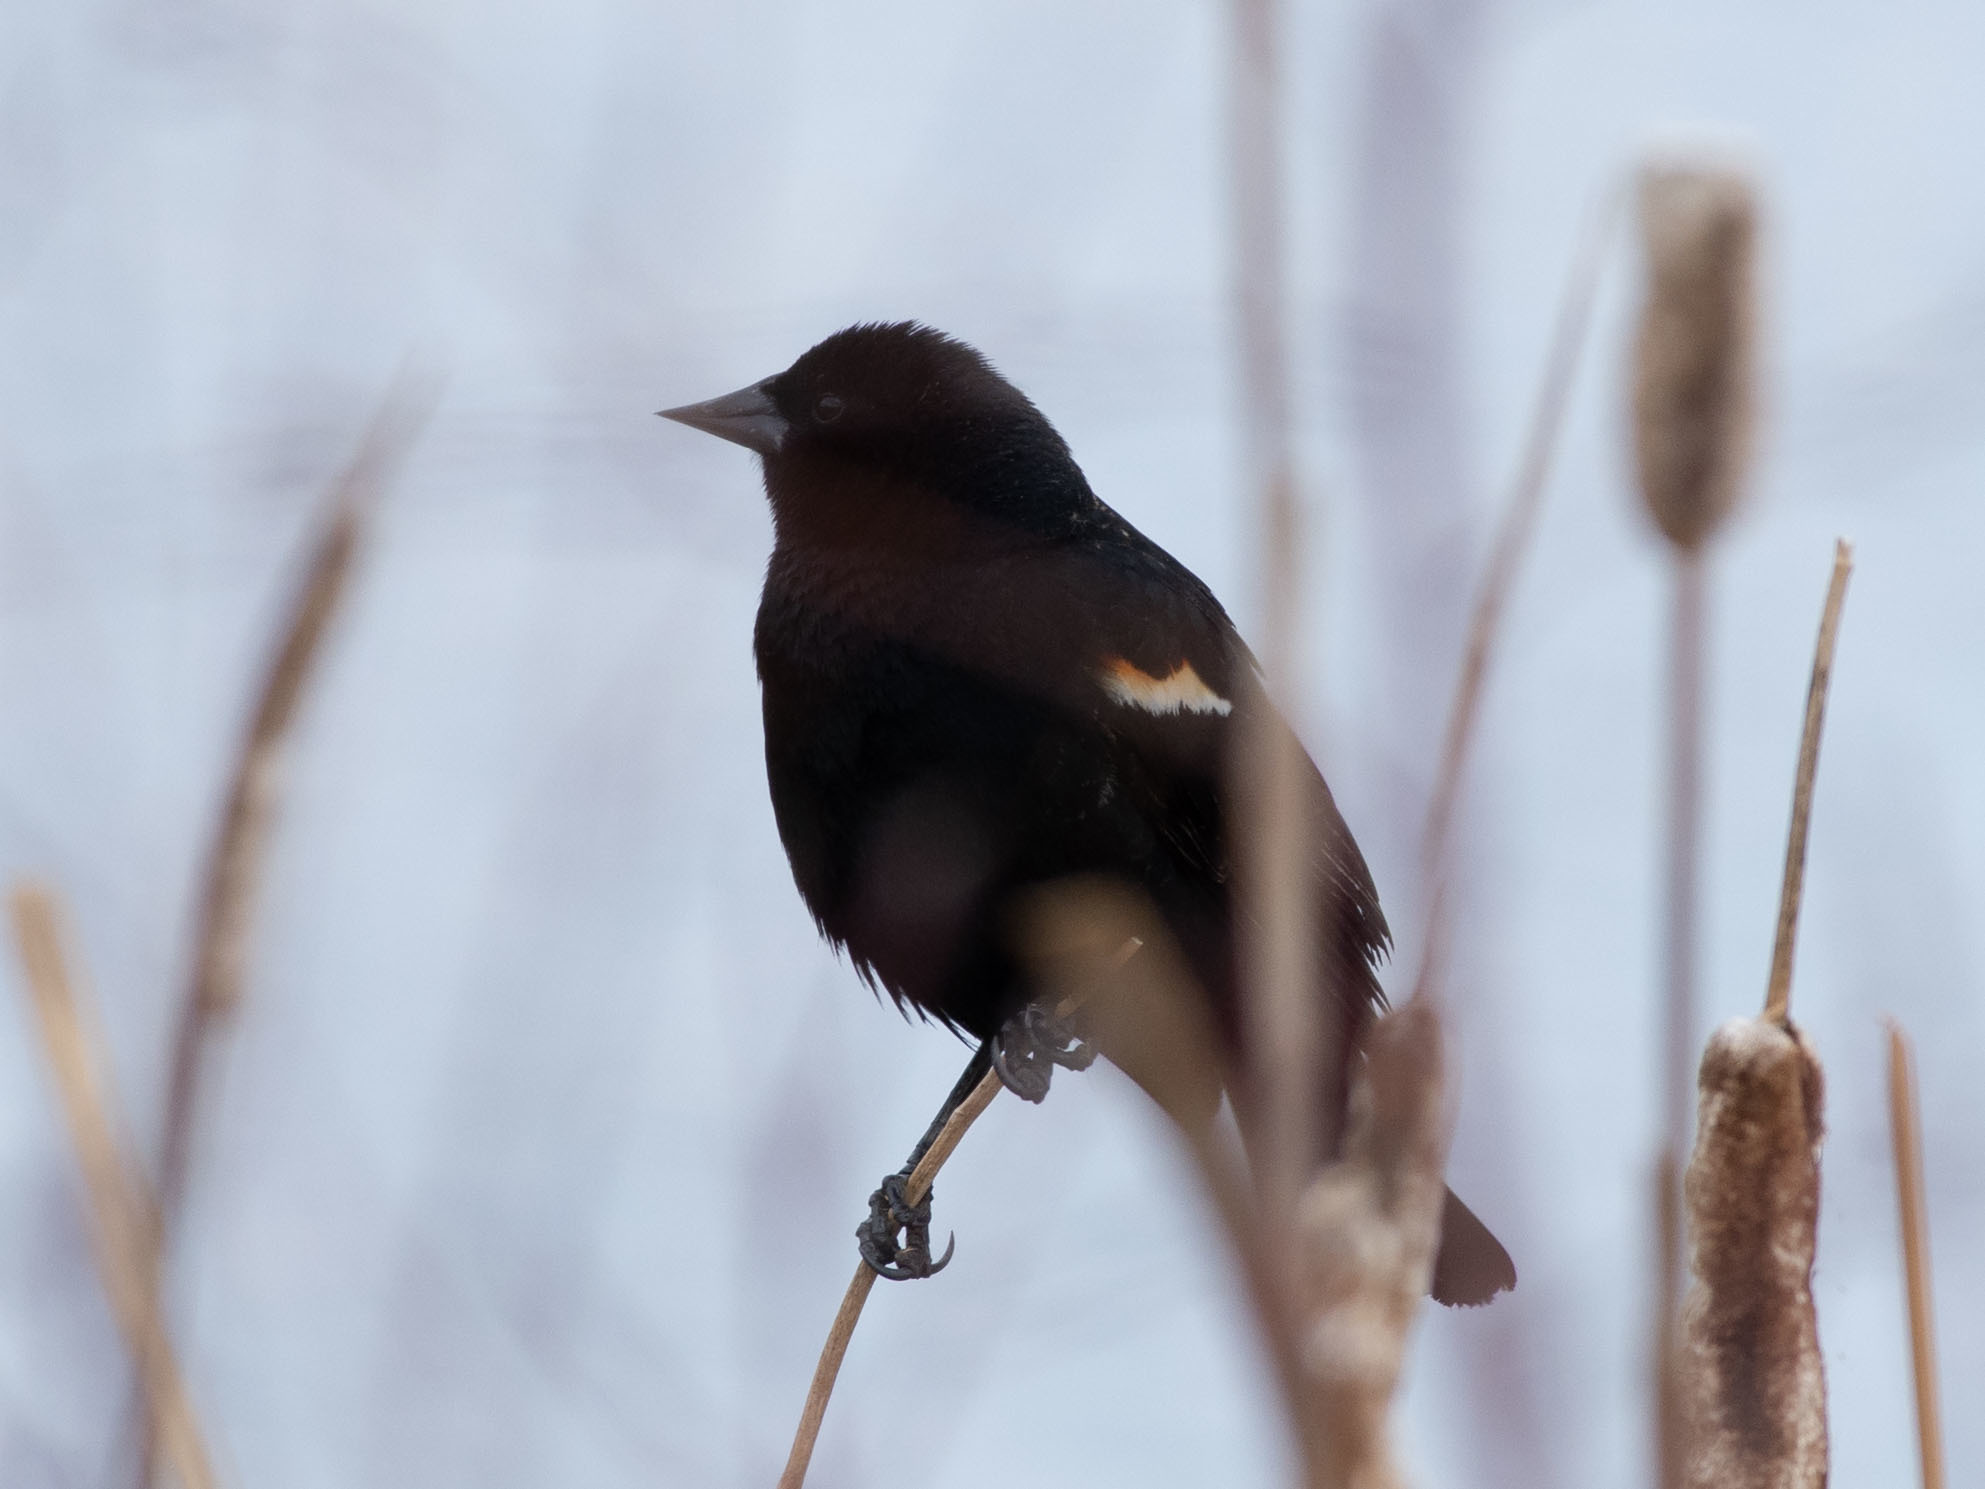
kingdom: Animalia
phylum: Chordata
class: Aves
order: Passeriformes
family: Icteridae
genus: Agelaius
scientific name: Agelaius phoeniceus
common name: Red-winged blackbird
